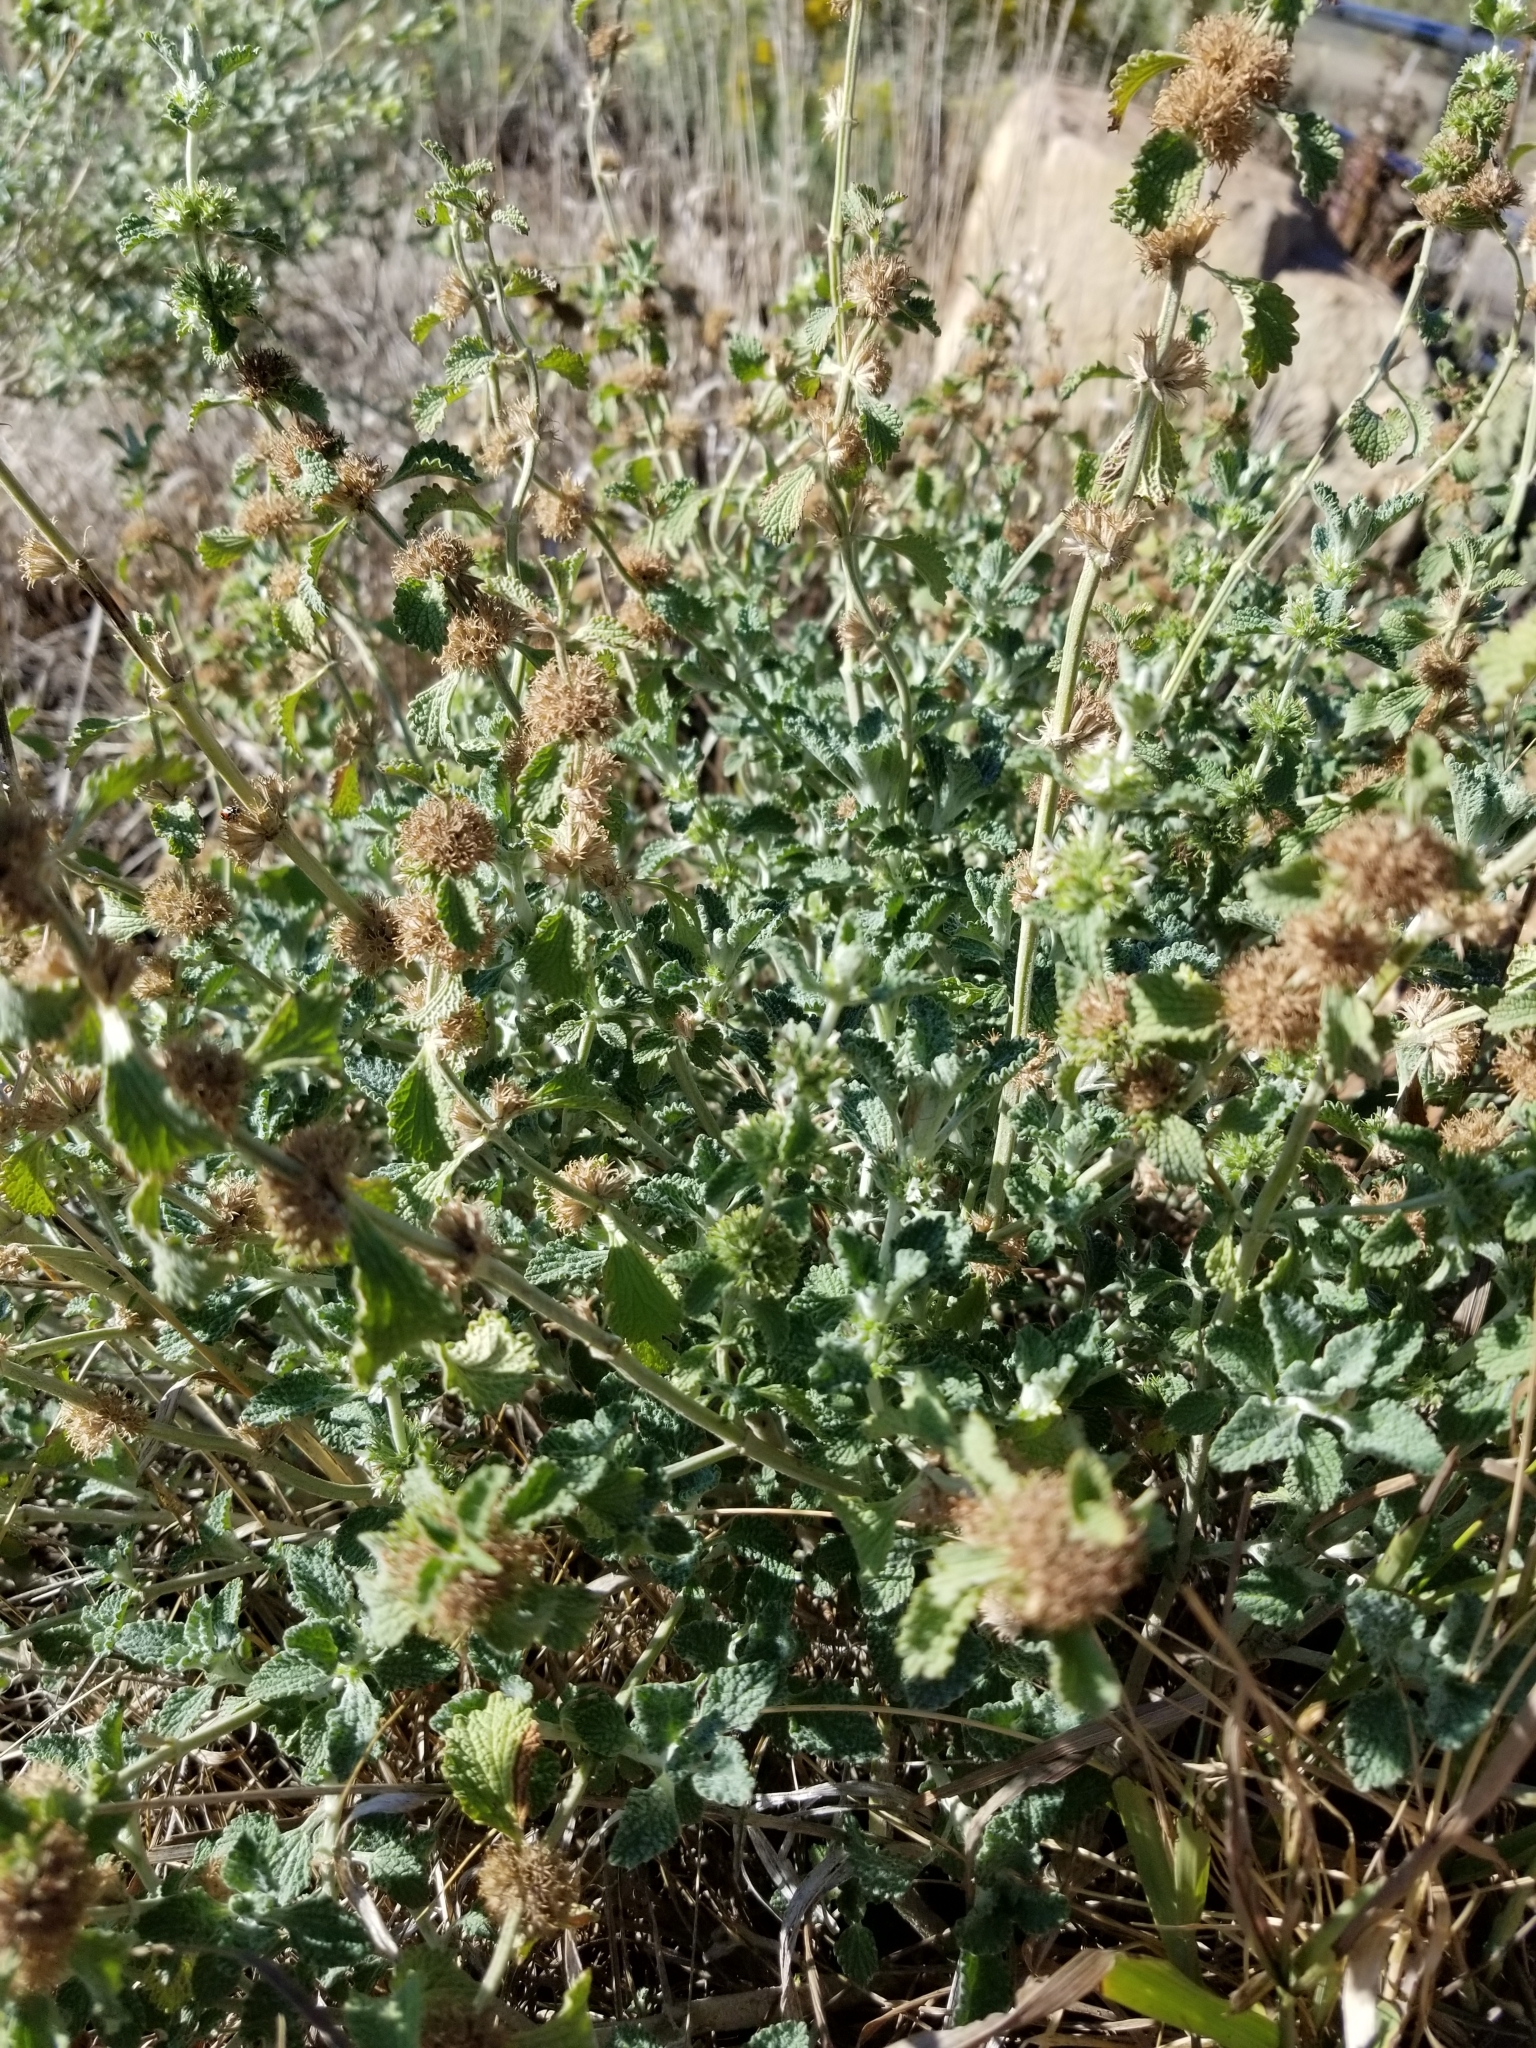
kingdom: Plantae
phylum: Tracheophyta
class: Magnoliopsida
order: Lamiales
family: Lamiaceae
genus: Marrubium
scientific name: Marrubium vulgare
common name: Horehound
